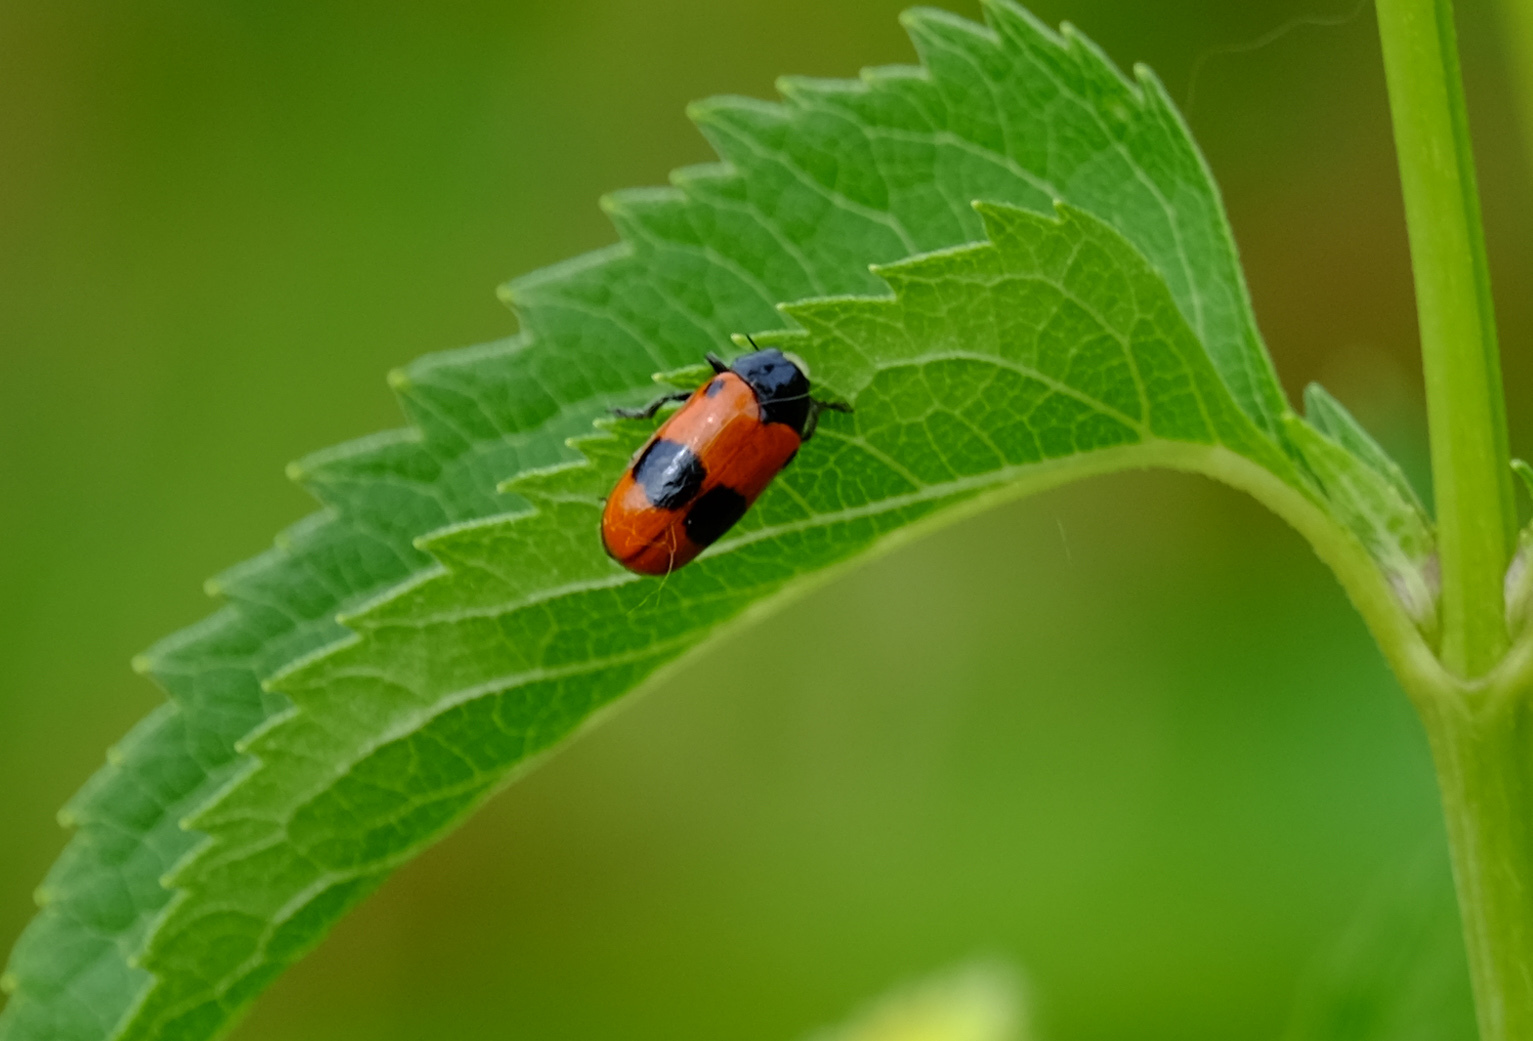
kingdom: Animalia
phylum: Arthropoda
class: Insecta
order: Coleoptera
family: Chrysomelidae
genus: Clytra
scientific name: Clytra laeviuscula
